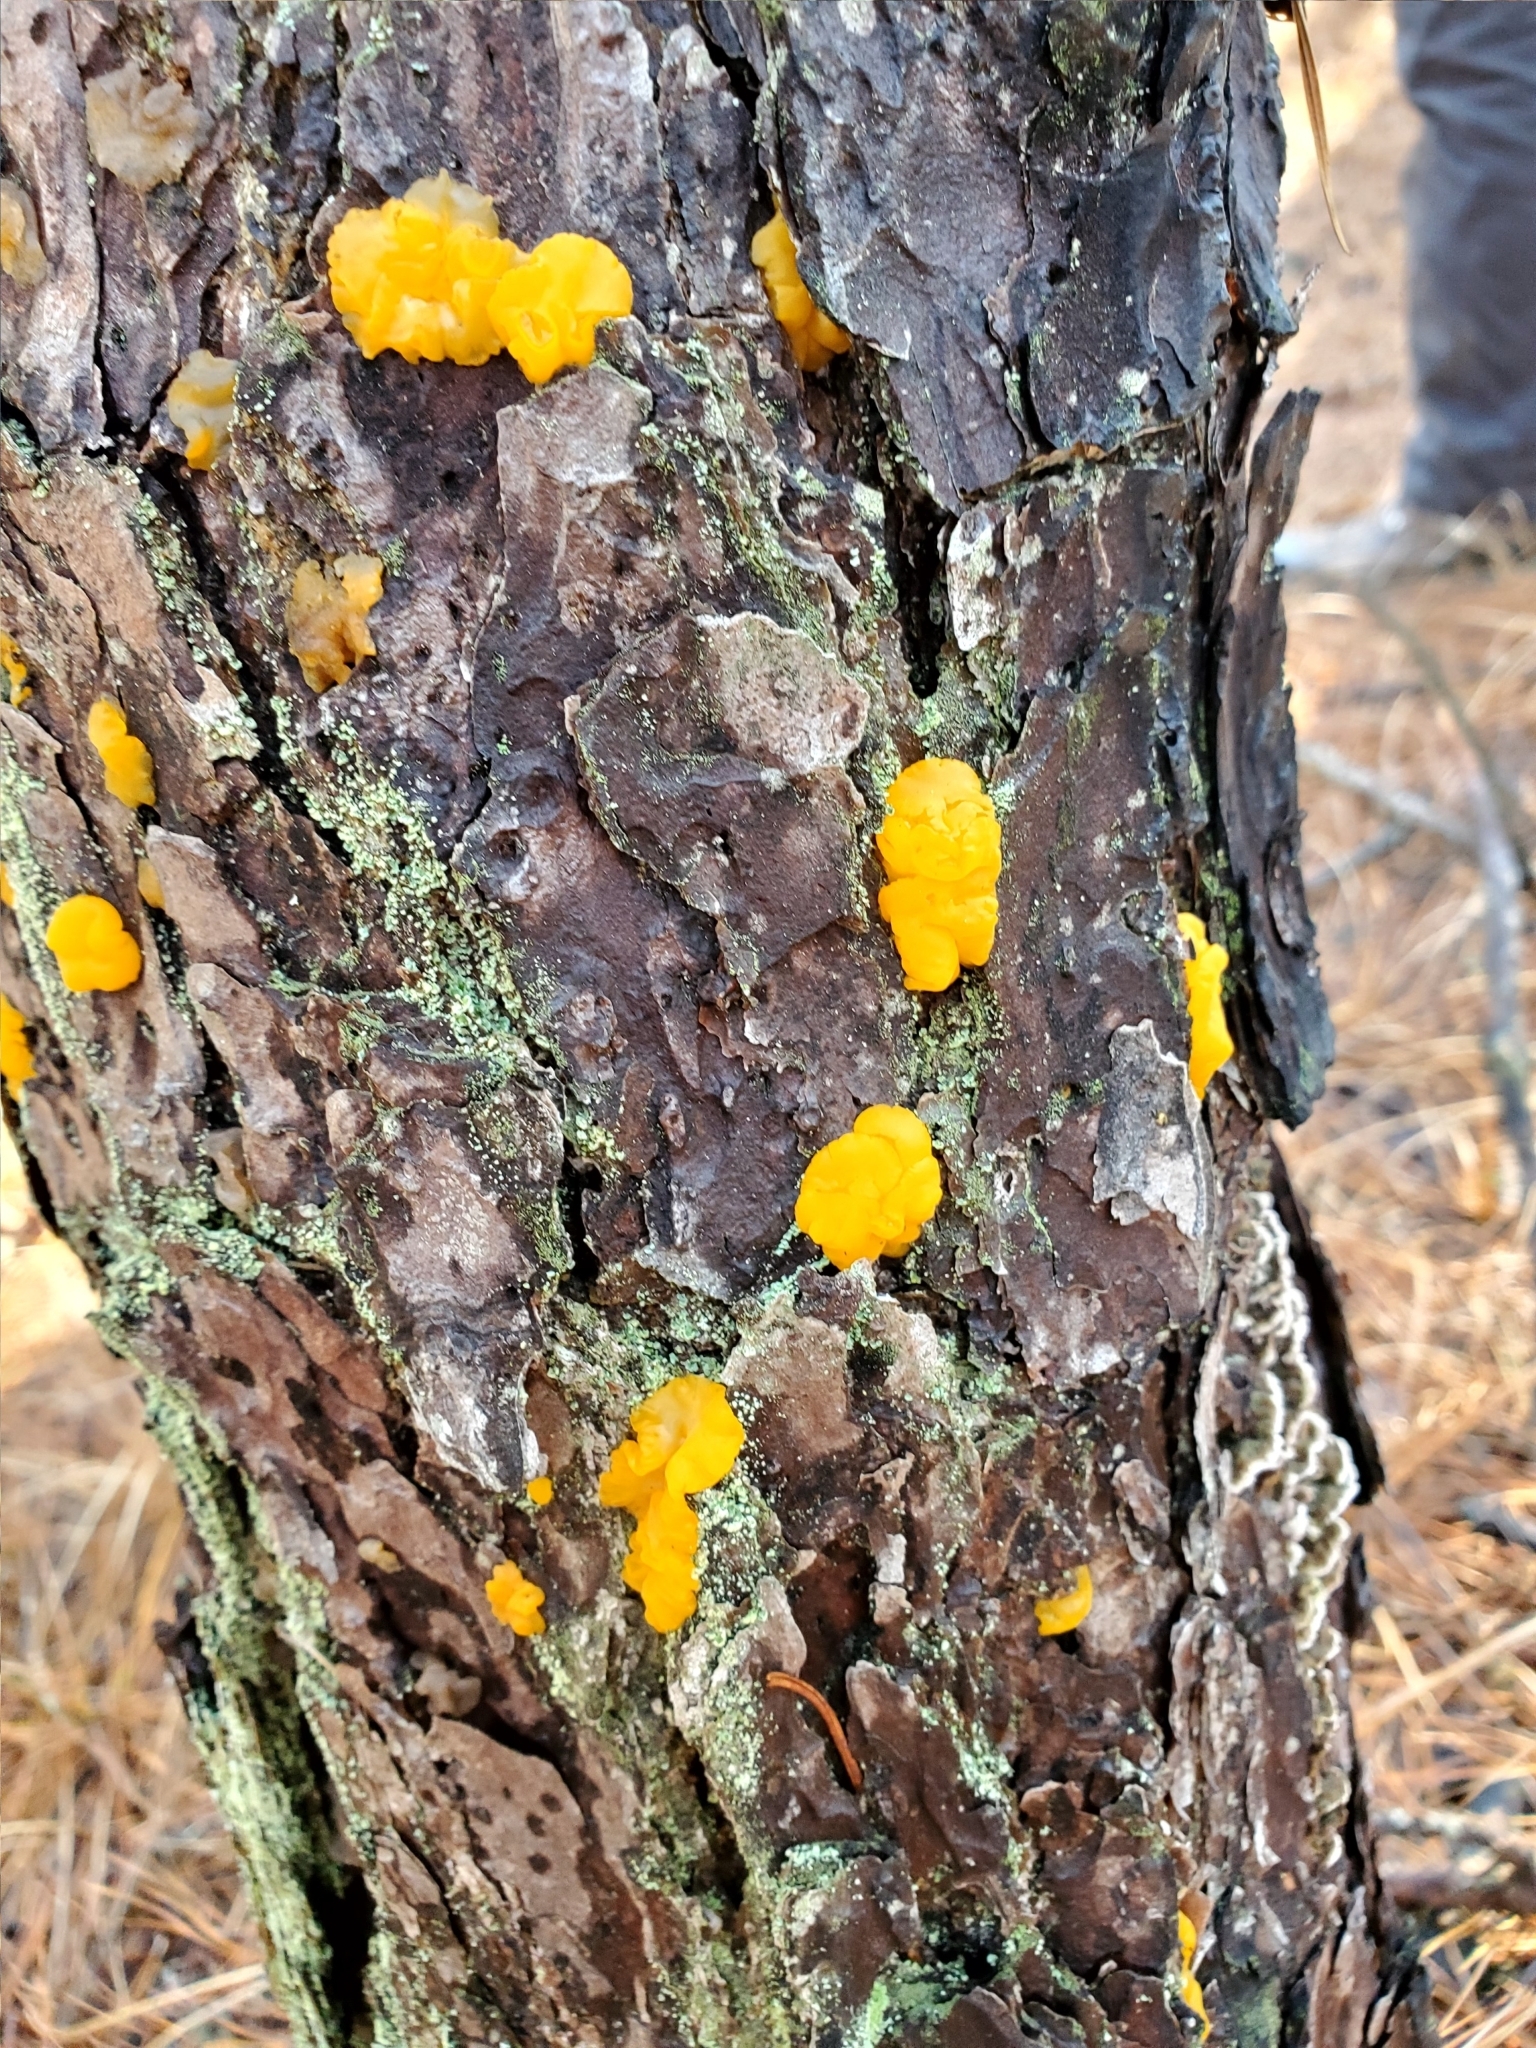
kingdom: Fungi
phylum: Basidiomycota
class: Dacrymycetes
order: Dacrymycetales
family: Dacrymycetaceae
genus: Dacrymyces
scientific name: Dacrymyces chrysospermus
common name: Orange jelly spot
